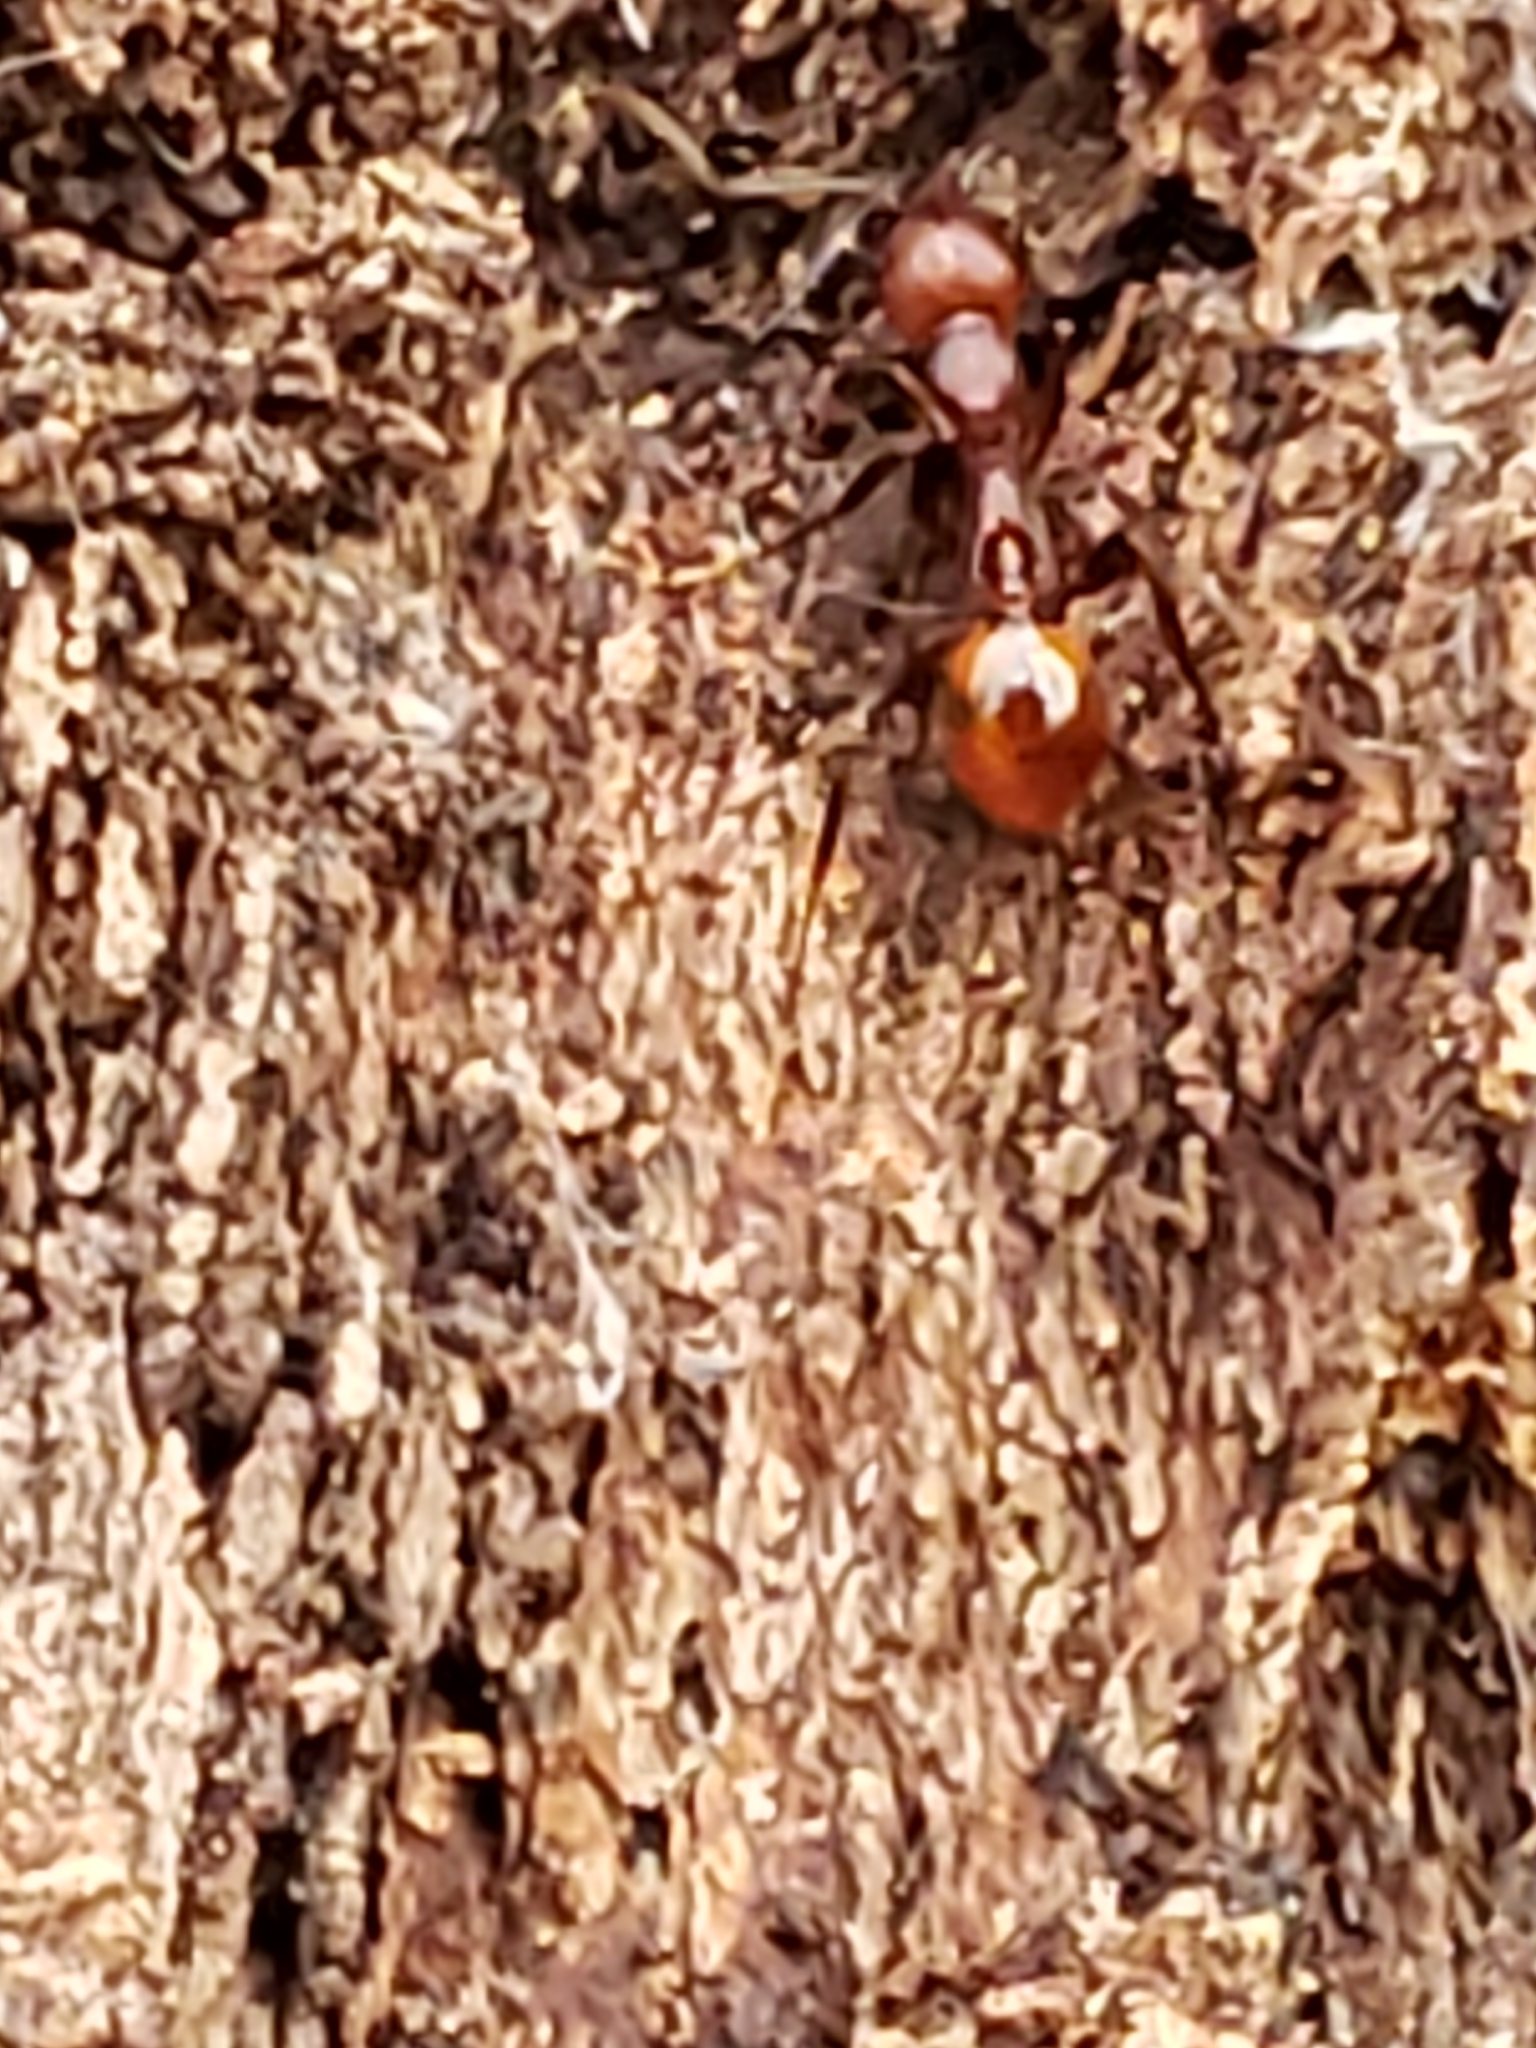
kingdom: Animalia
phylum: Arthropoda
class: Insecta
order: Hymenoptera
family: Formicidae
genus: Aphaenogaster
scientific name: Aphaenogaster tennesseensis
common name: Tennessee thread-waisted ant
